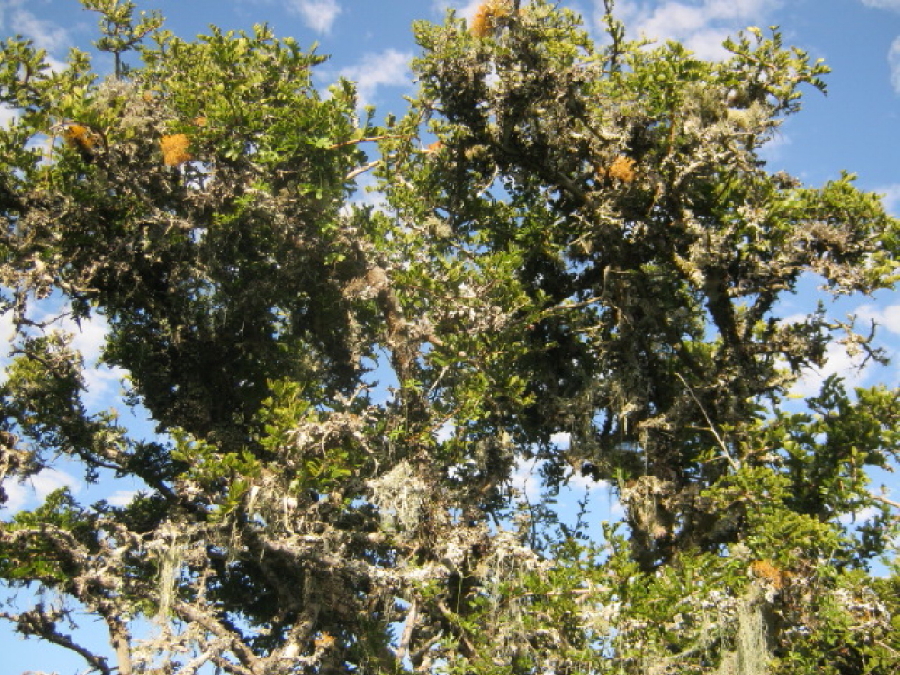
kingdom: Plantae
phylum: Tracheophyta
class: Magnoliopsida
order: Fabales
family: Fabaceae
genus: Schotia
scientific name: Schotia afra
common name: Hottentot's bean
